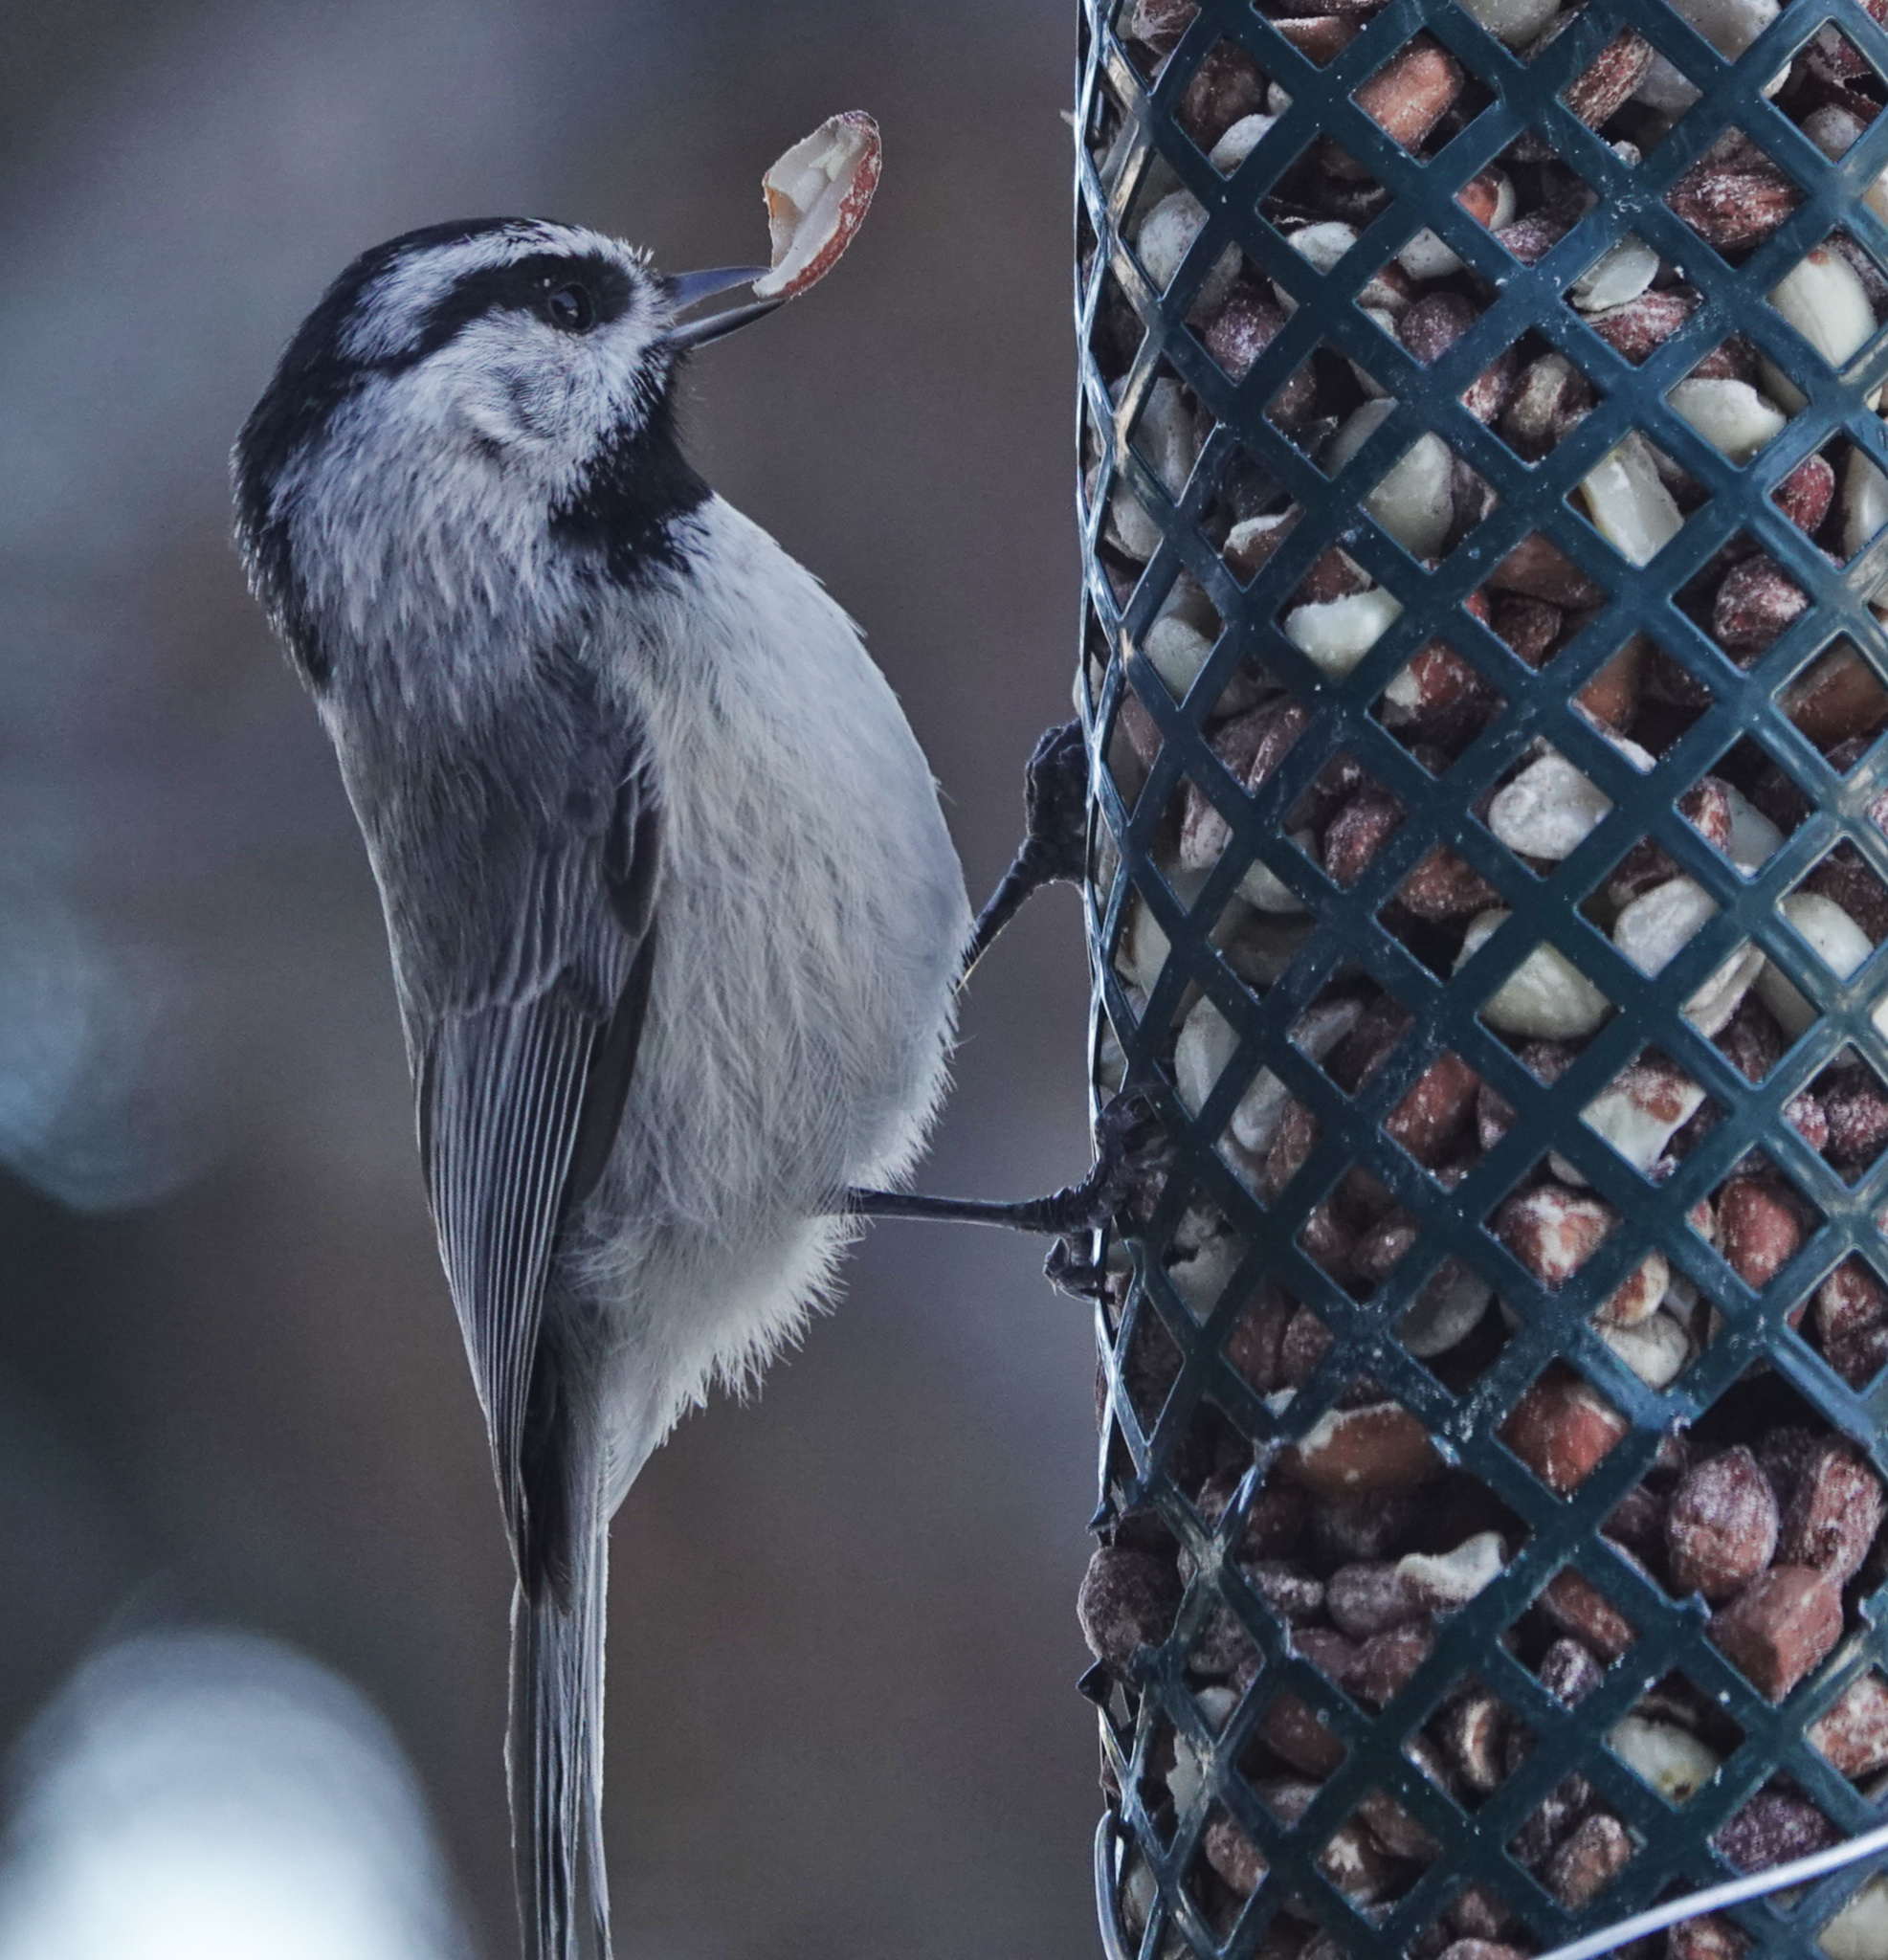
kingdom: Animalia
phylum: Chordata
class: Aves
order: Passeriformes
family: Paridae
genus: Poecile
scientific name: Poecile gambeli
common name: Mountain chickadee
